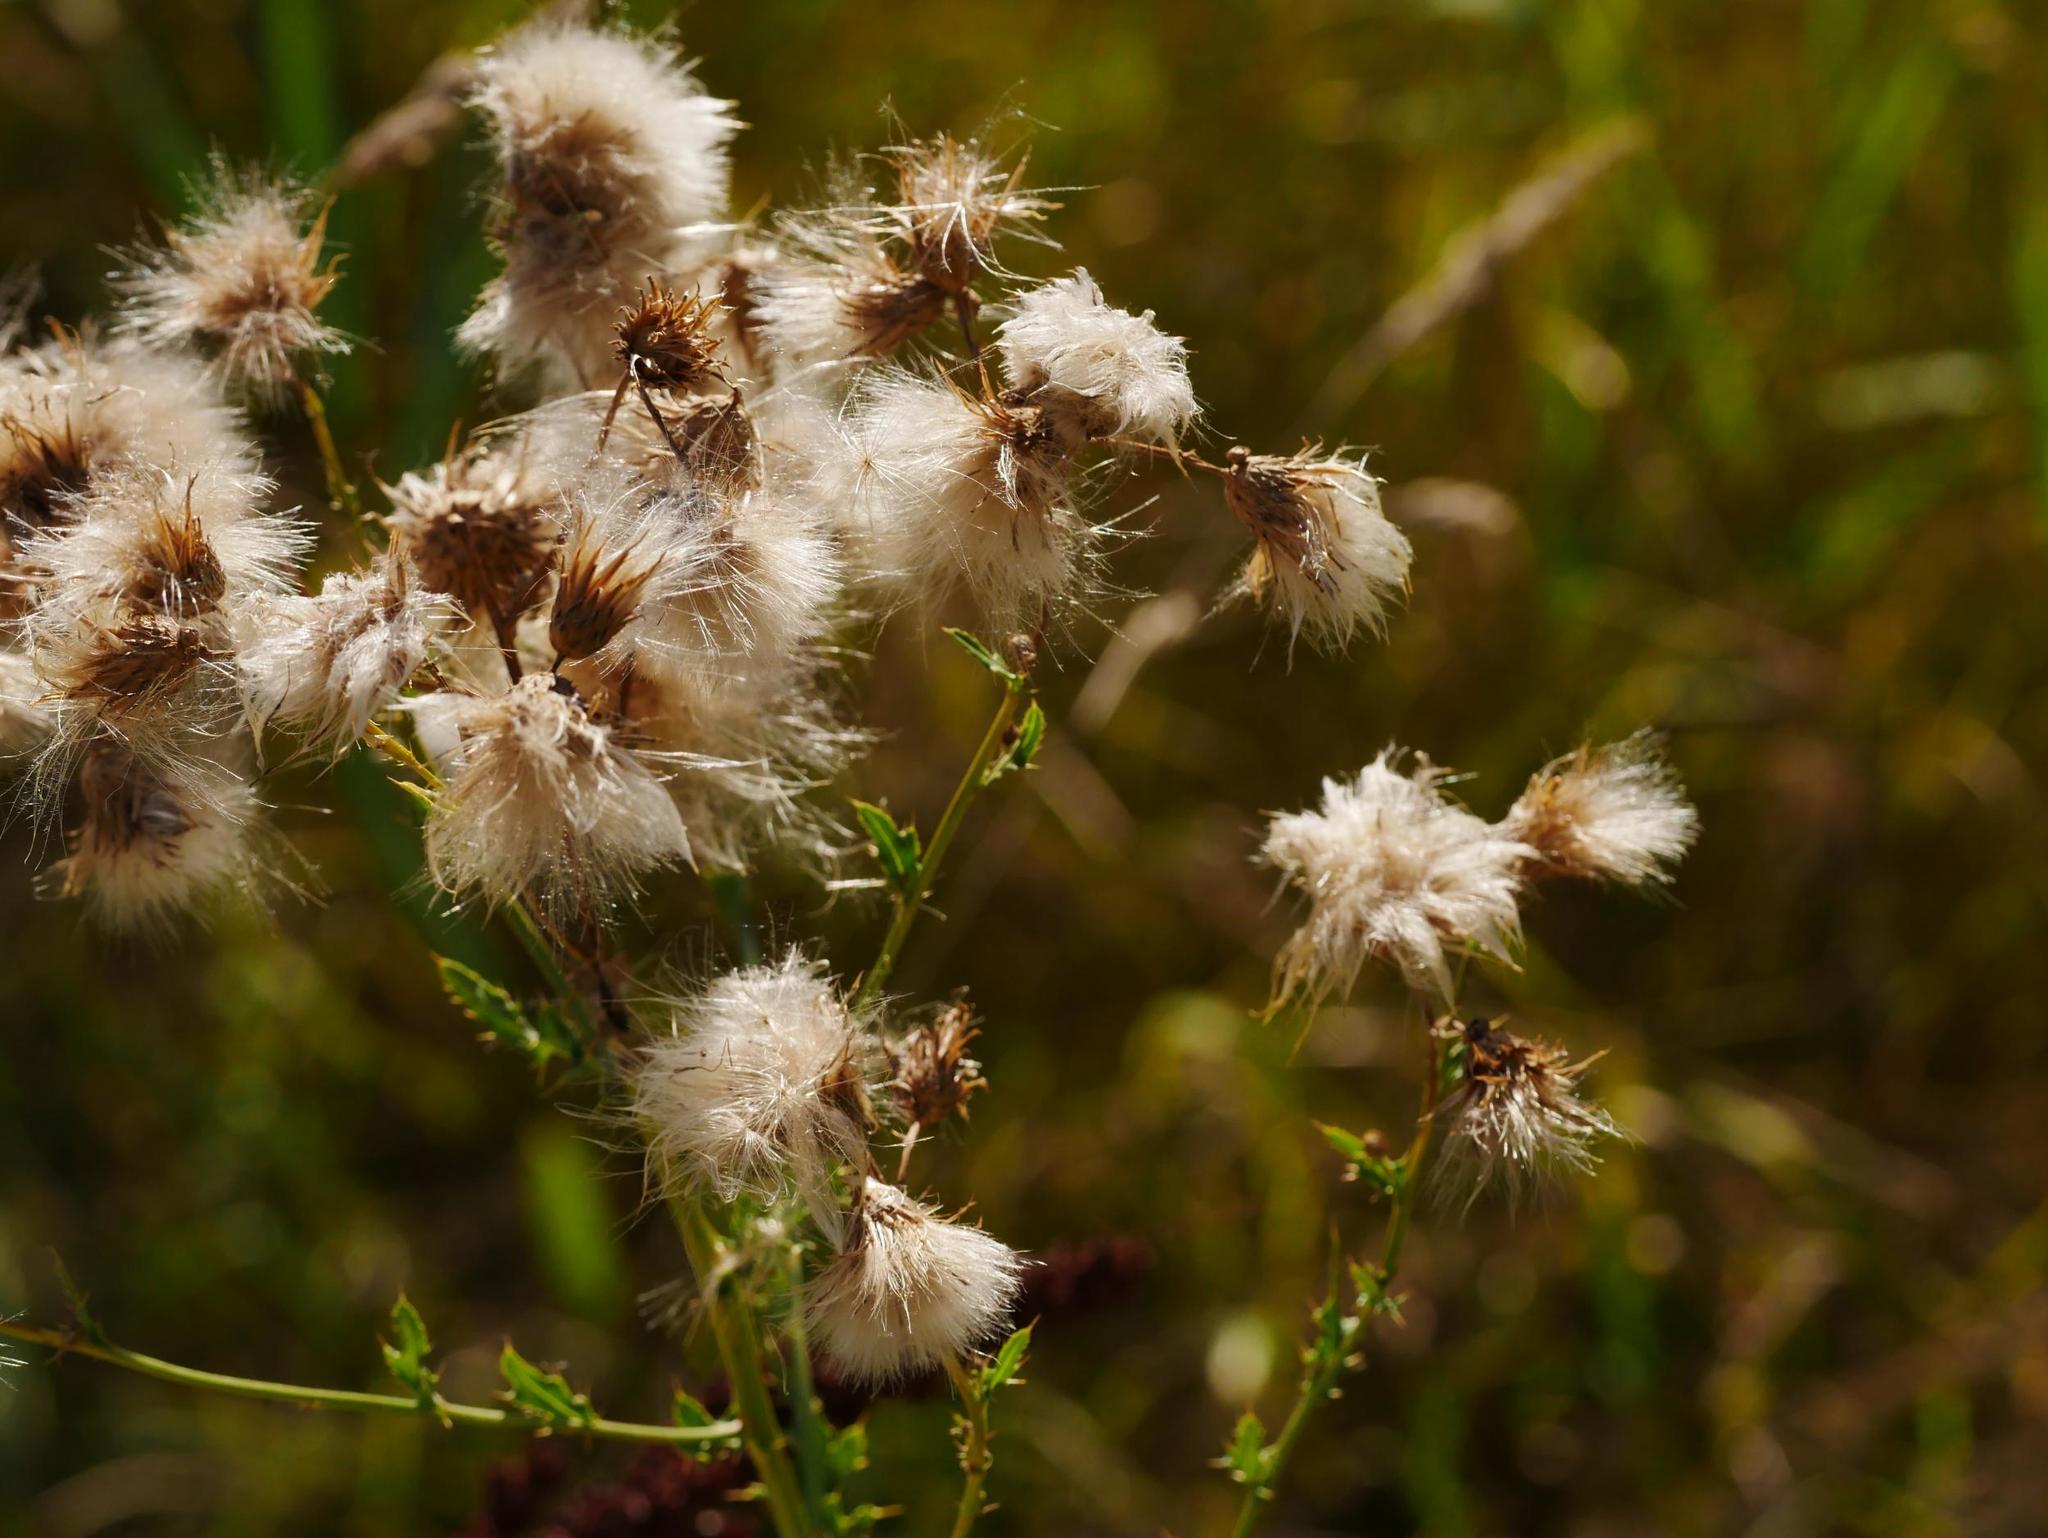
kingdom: Plantae
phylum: Tracheophyta
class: Magnoliopsida
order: Asterales
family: Asteraceae
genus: Cirsium
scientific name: Cirsium arvense
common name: Creeping thistle
